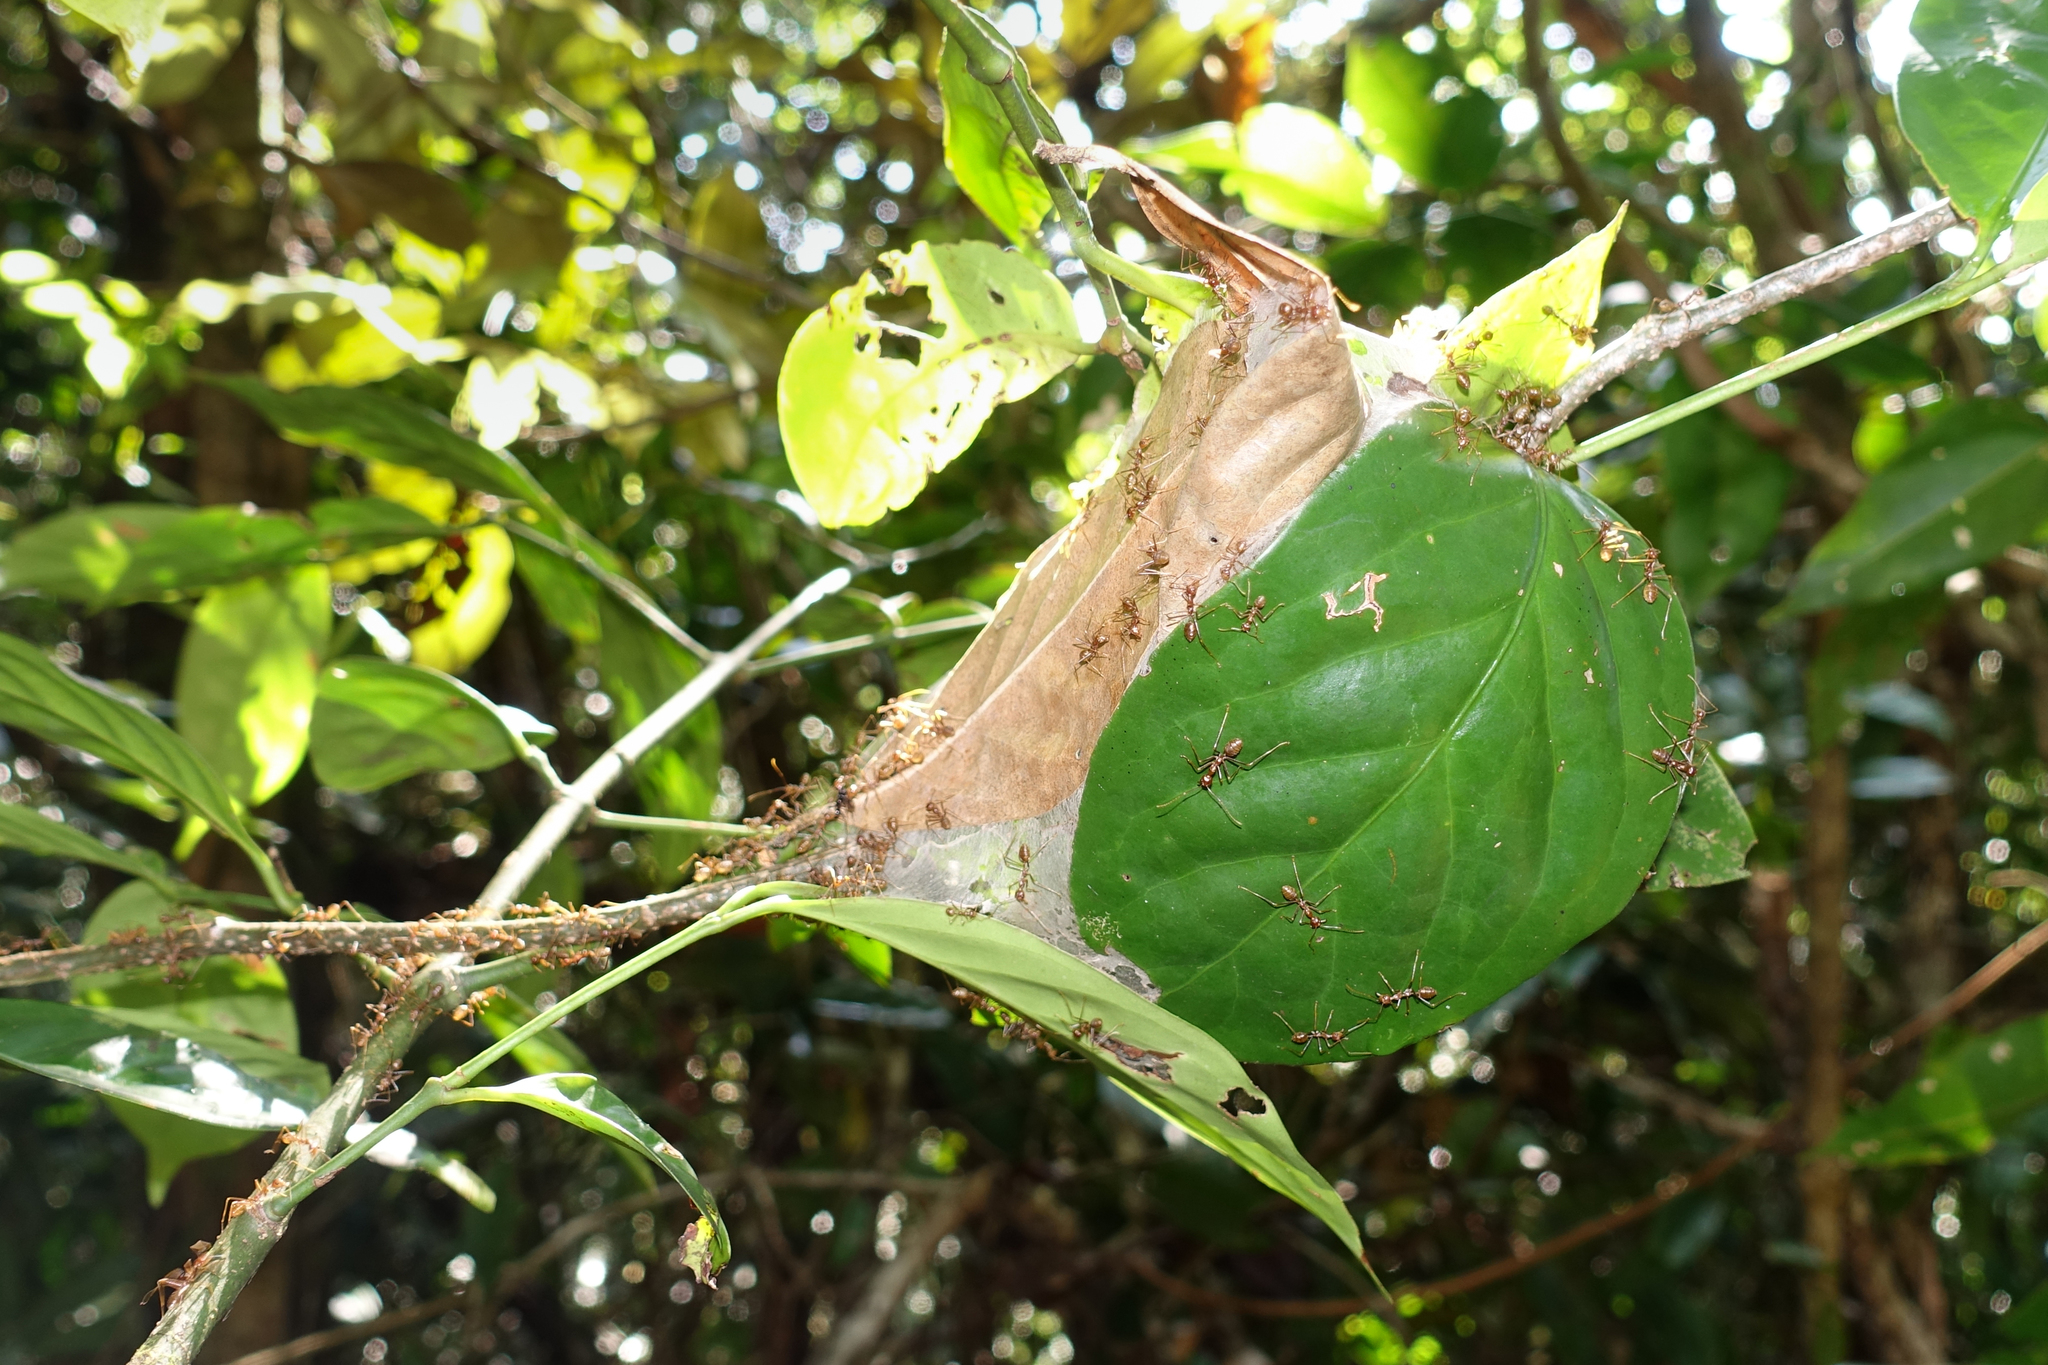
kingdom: Animalia
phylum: Arthropoda
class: Insecta
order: Hymenoptera
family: Formicidae
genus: Oecophylla
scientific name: Oecophylla smaragdina
